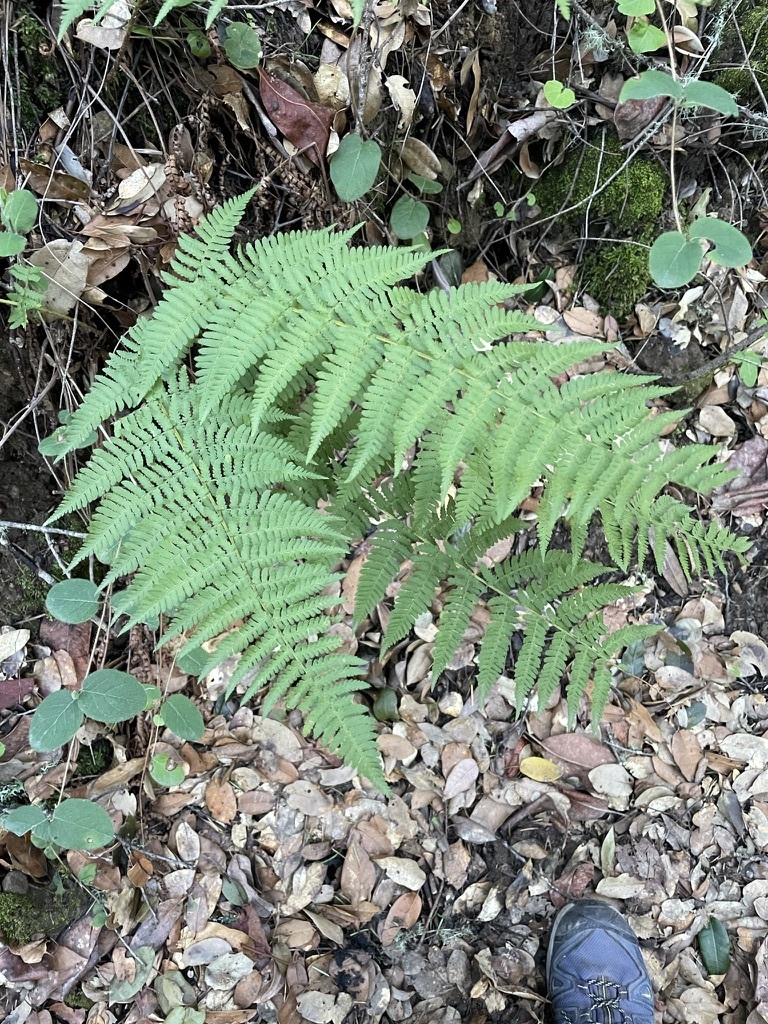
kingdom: Plantae
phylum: Tracheophyta
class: Polypodiopsida
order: Polypodiales
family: Dryopteridaceae
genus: Dryopteris
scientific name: Dryopteris arguta
